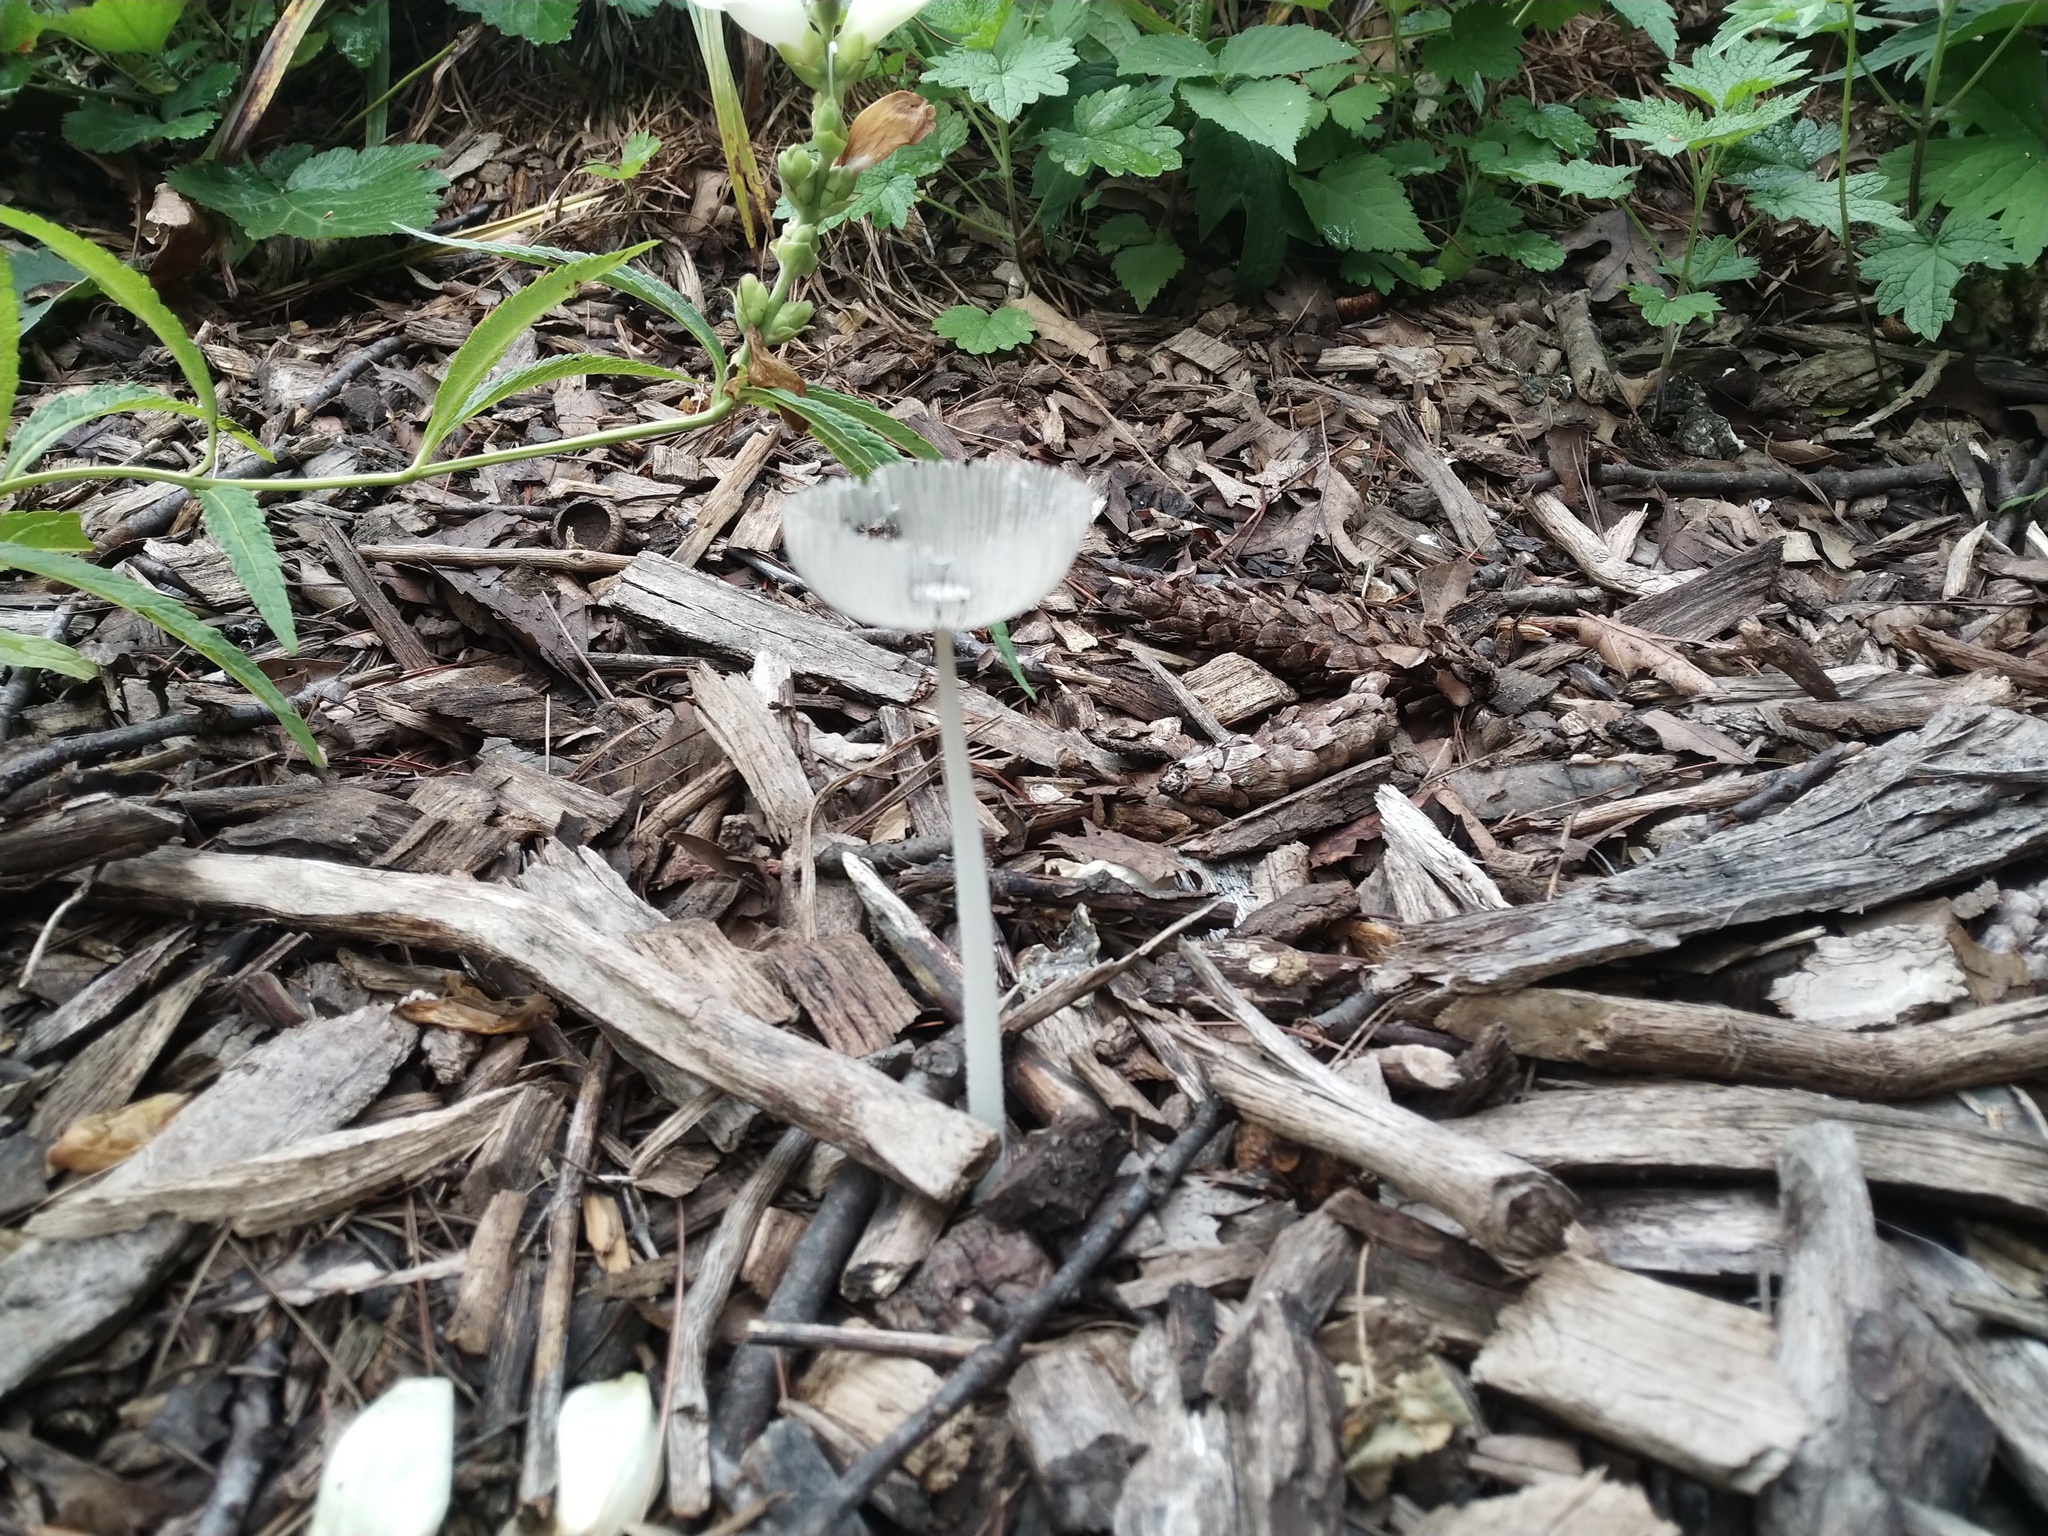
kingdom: Fungi
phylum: Basidiomycota
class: Agaricomycetes
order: Agaricales
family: Psathyrellaceae
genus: Coprinopsis
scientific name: Coprinopsis lagopus
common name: Hare'sfoot inkcap
